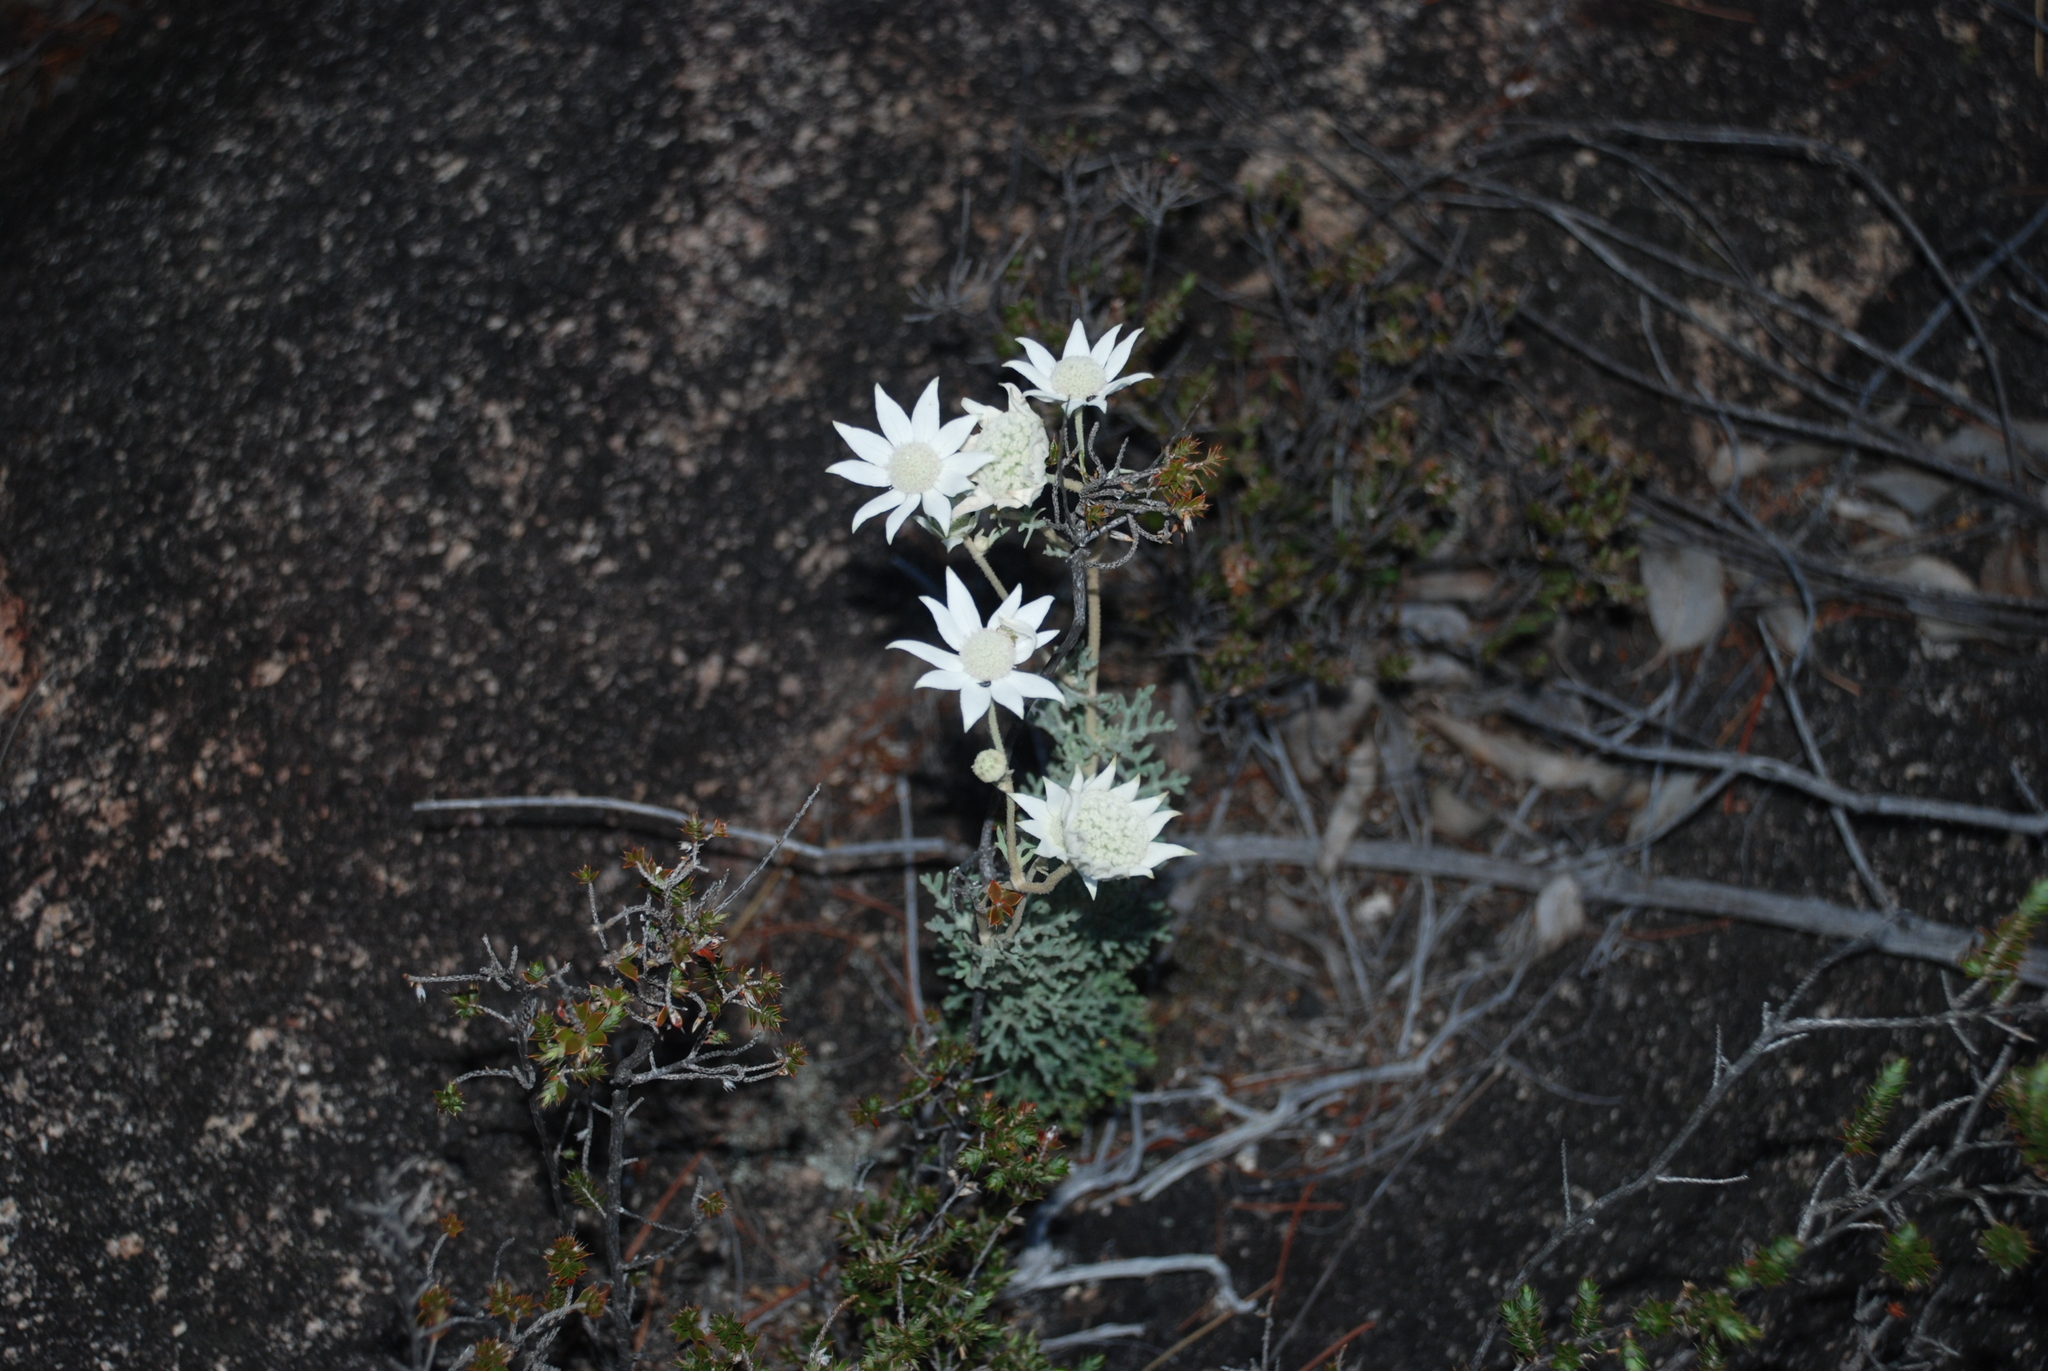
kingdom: Plantae
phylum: Tracheophyta
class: Magnoliopsida
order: Apiales
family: Apiaceae
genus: Actinotus
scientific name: Actinotus helianthi
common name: Flannel-flower
